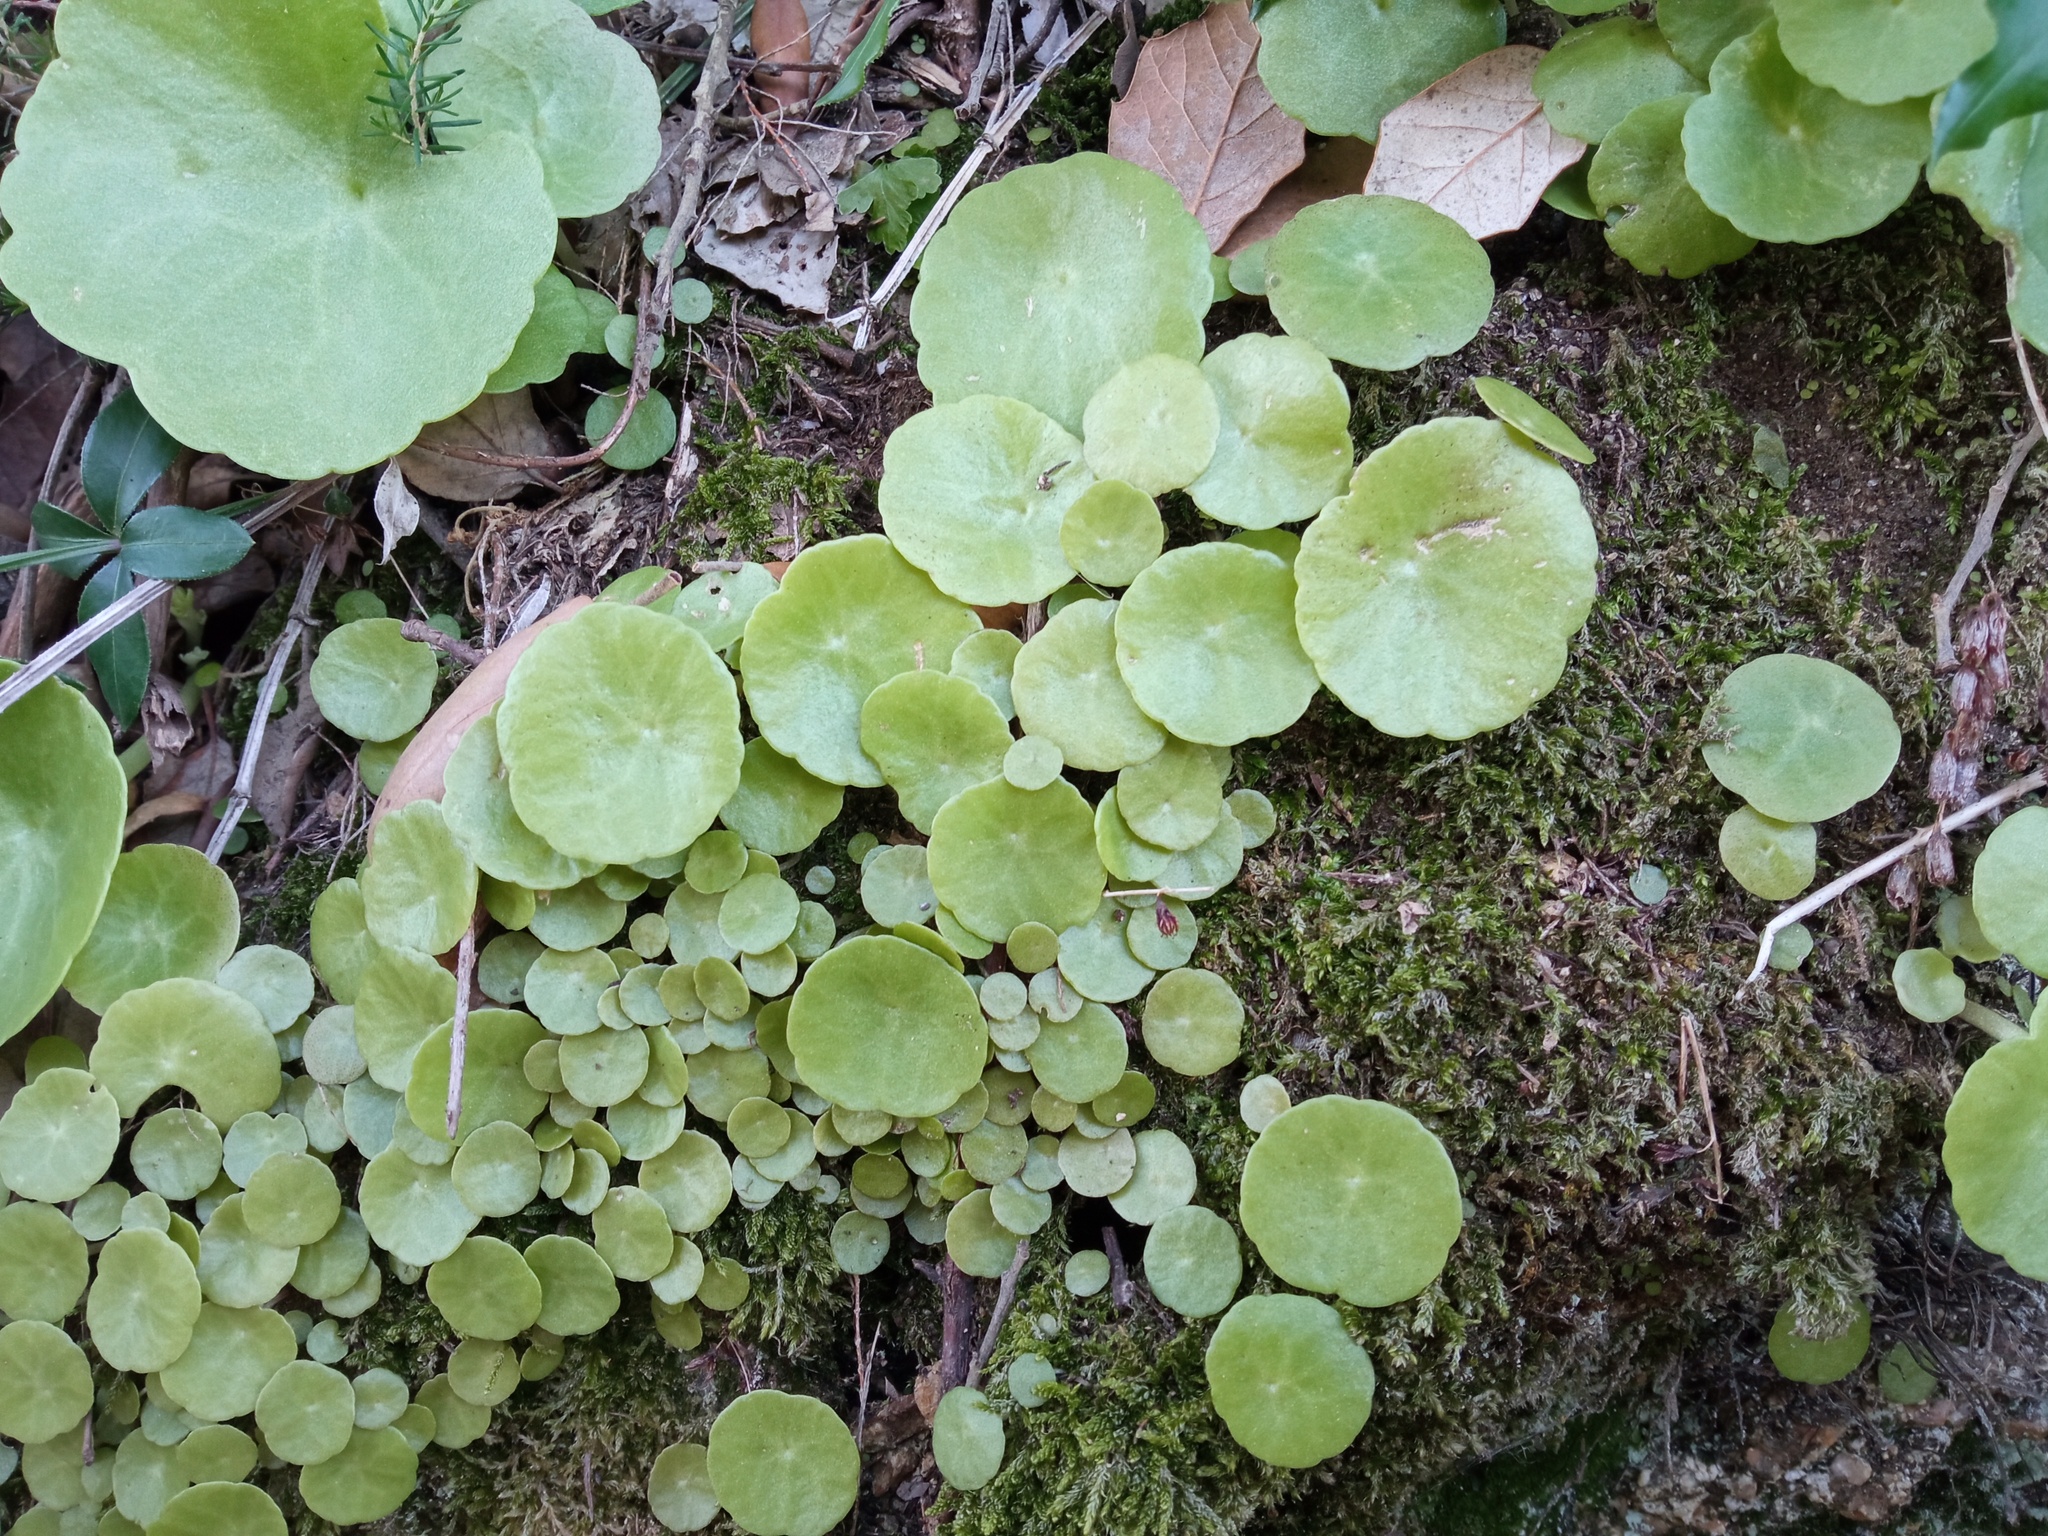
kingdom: Plantae
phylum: Tracheophyta
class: Magnoliopsida
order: Saxifragales
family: Crassulaceae
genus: Umbilicus
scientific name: Umbilicus rupestris
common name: Navelwort
